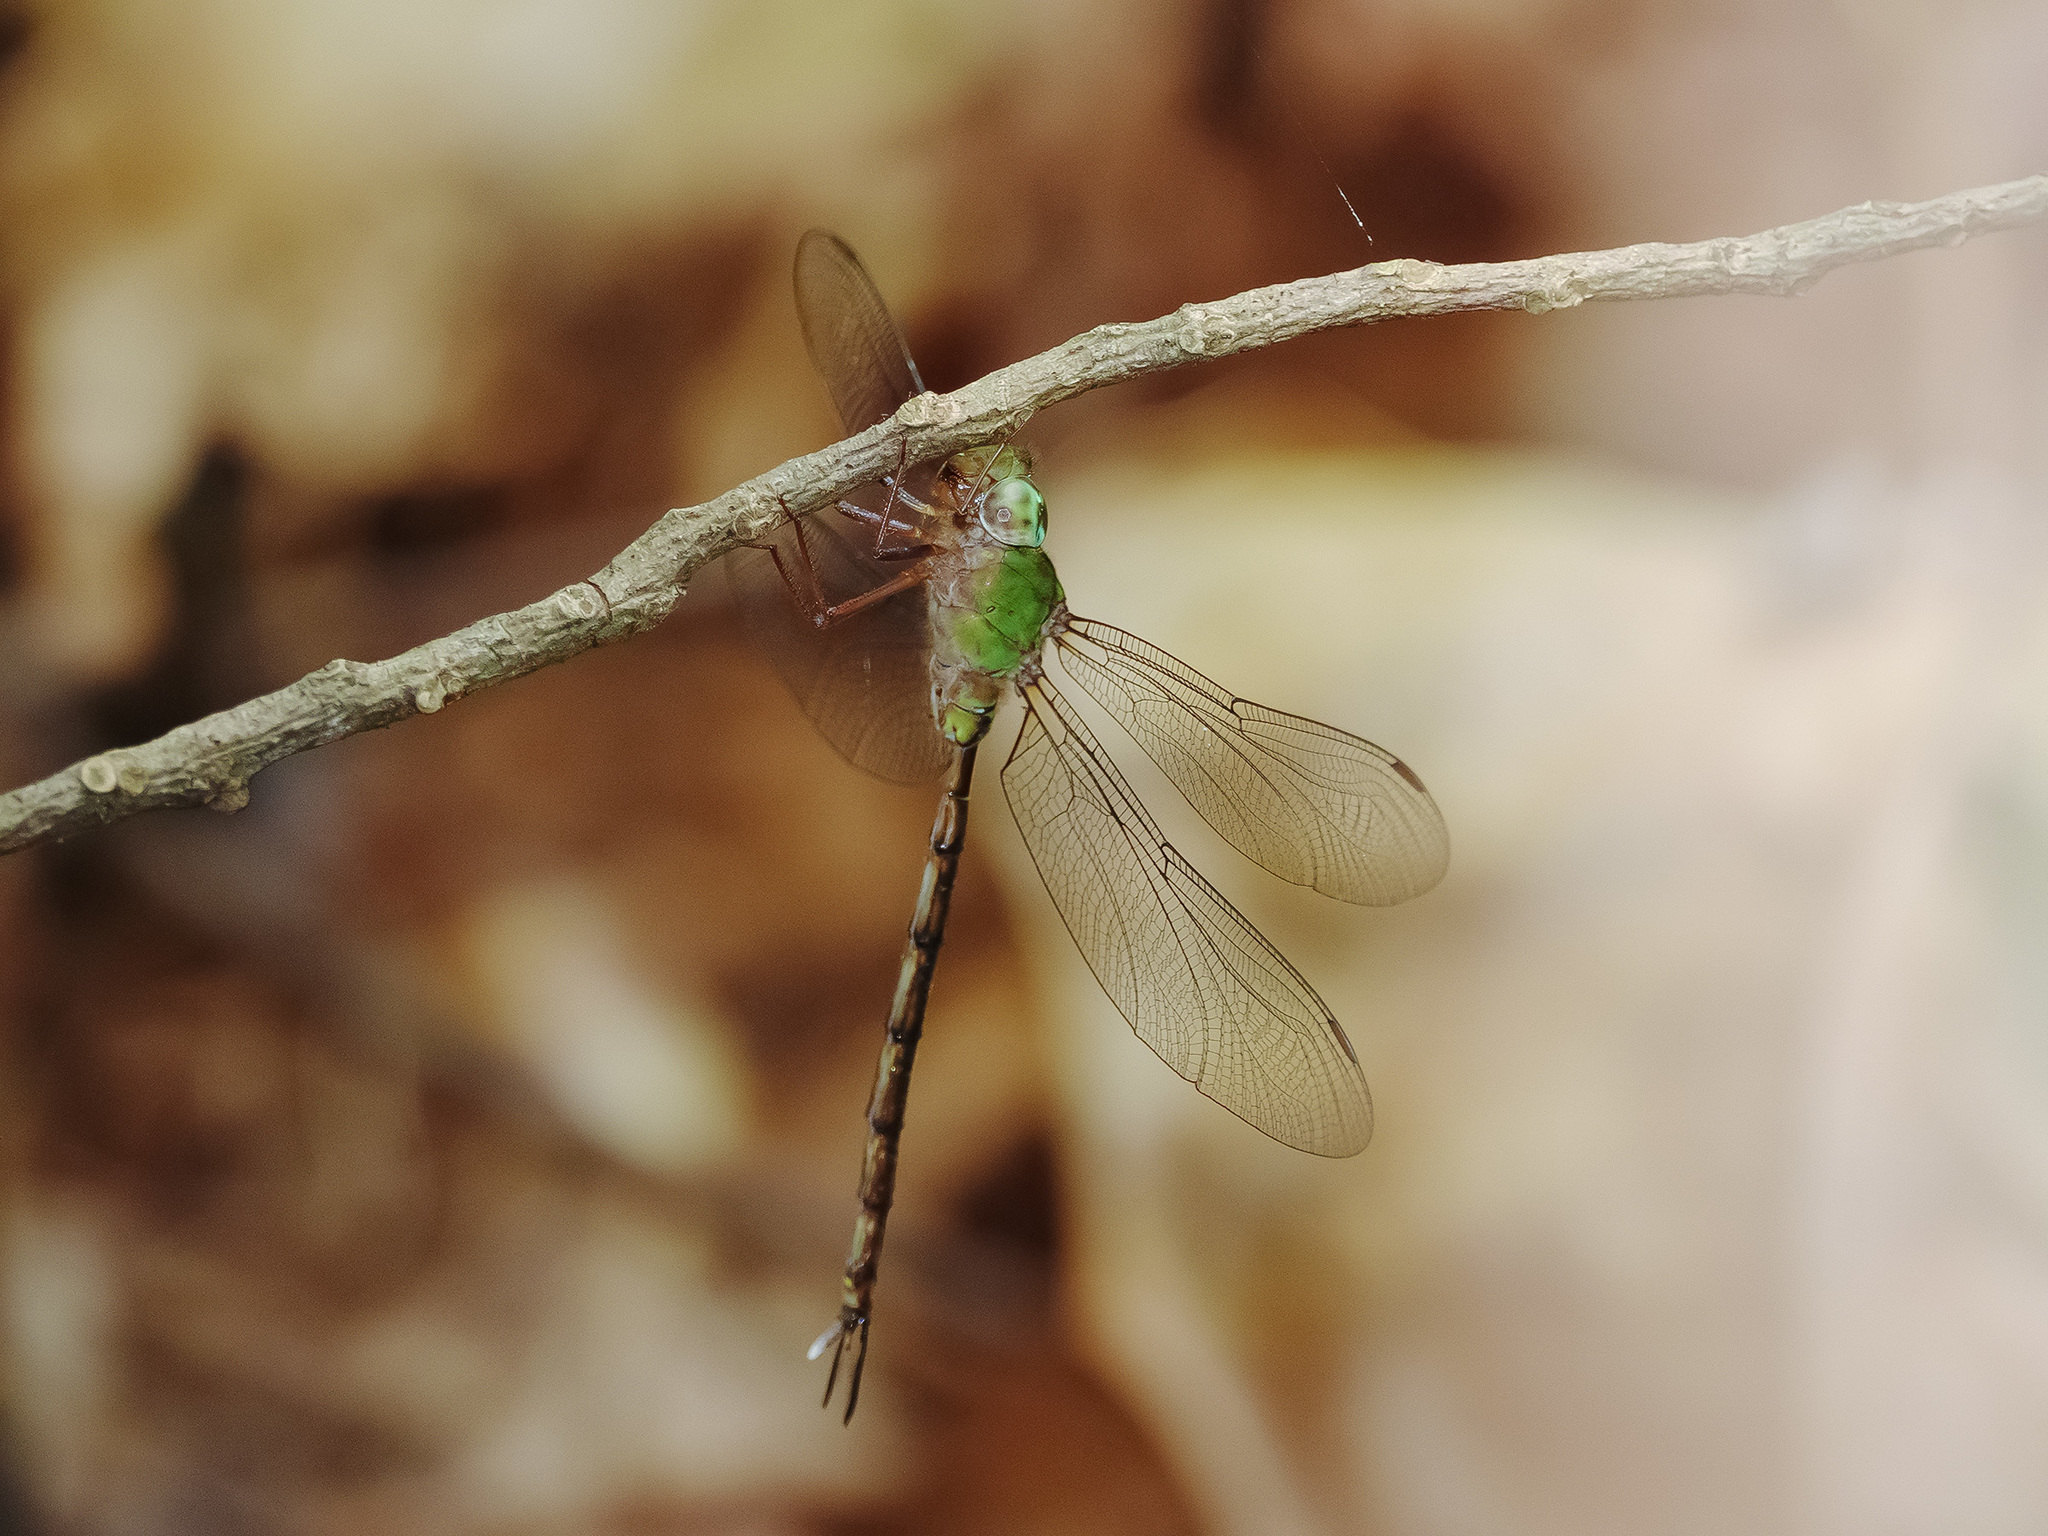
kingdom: Animalia
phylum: Arthropoda
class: Insecta
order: Odonata
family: Aeshnidae
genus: Gynacantha
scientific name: Gynacantha dohrni
